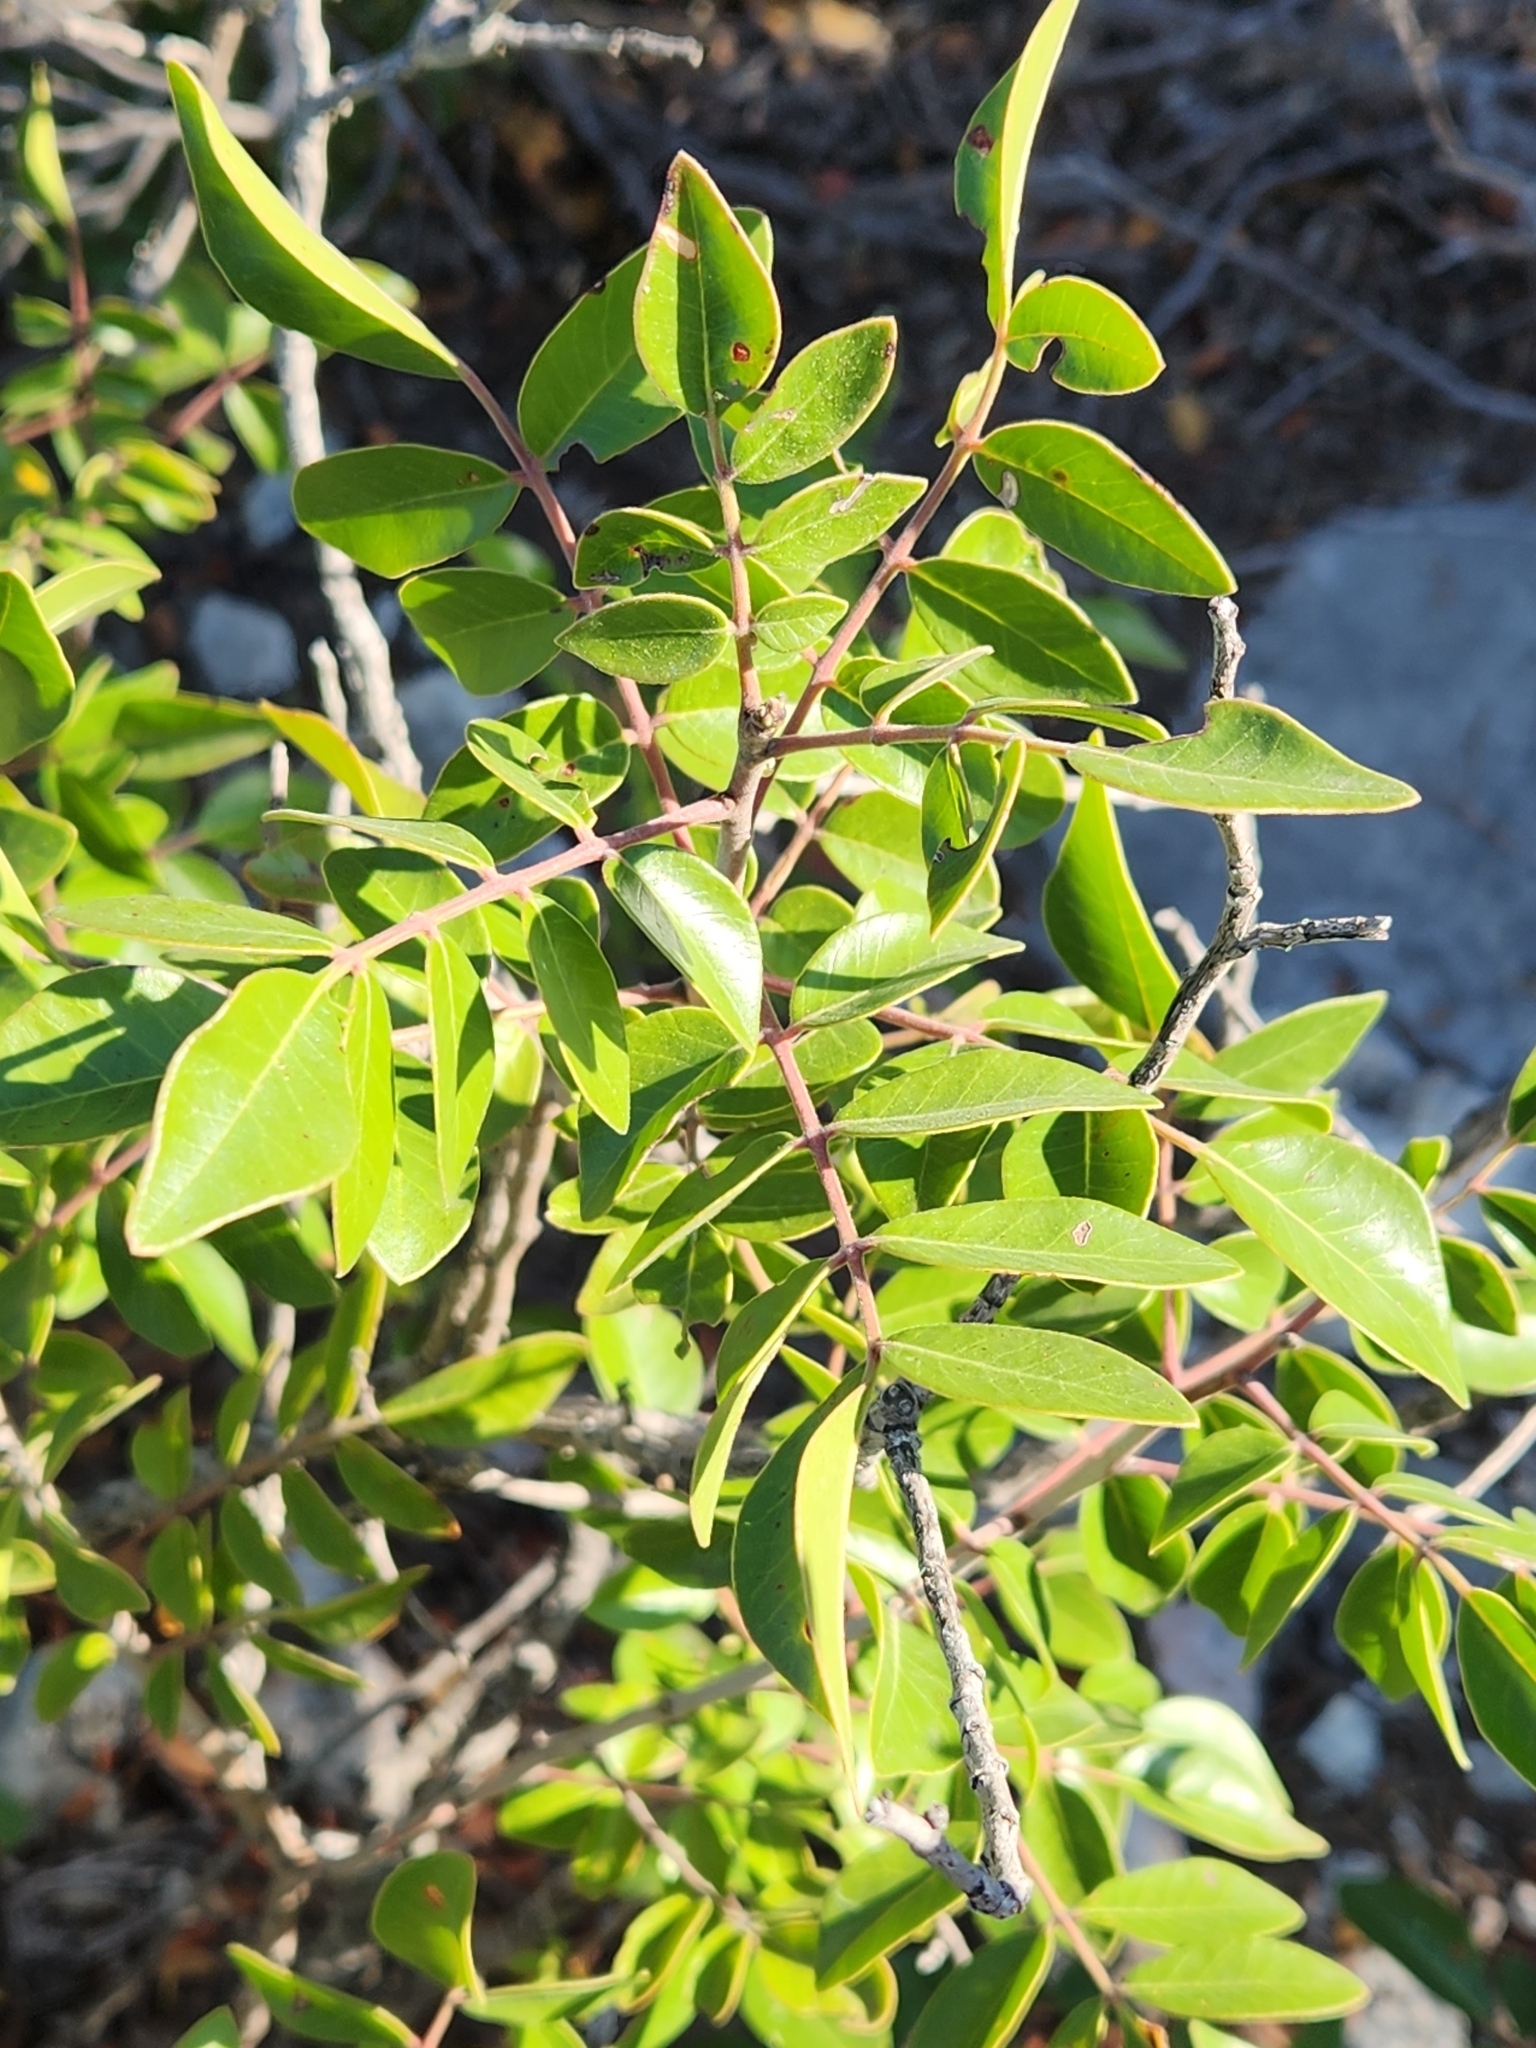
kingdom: Plantae
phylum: Tracheophyta
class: Magnoliopsida
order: Sapindales
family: Anacardiaceae
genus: Rhus
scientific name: Rhus virens
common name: Evergreen sumac
